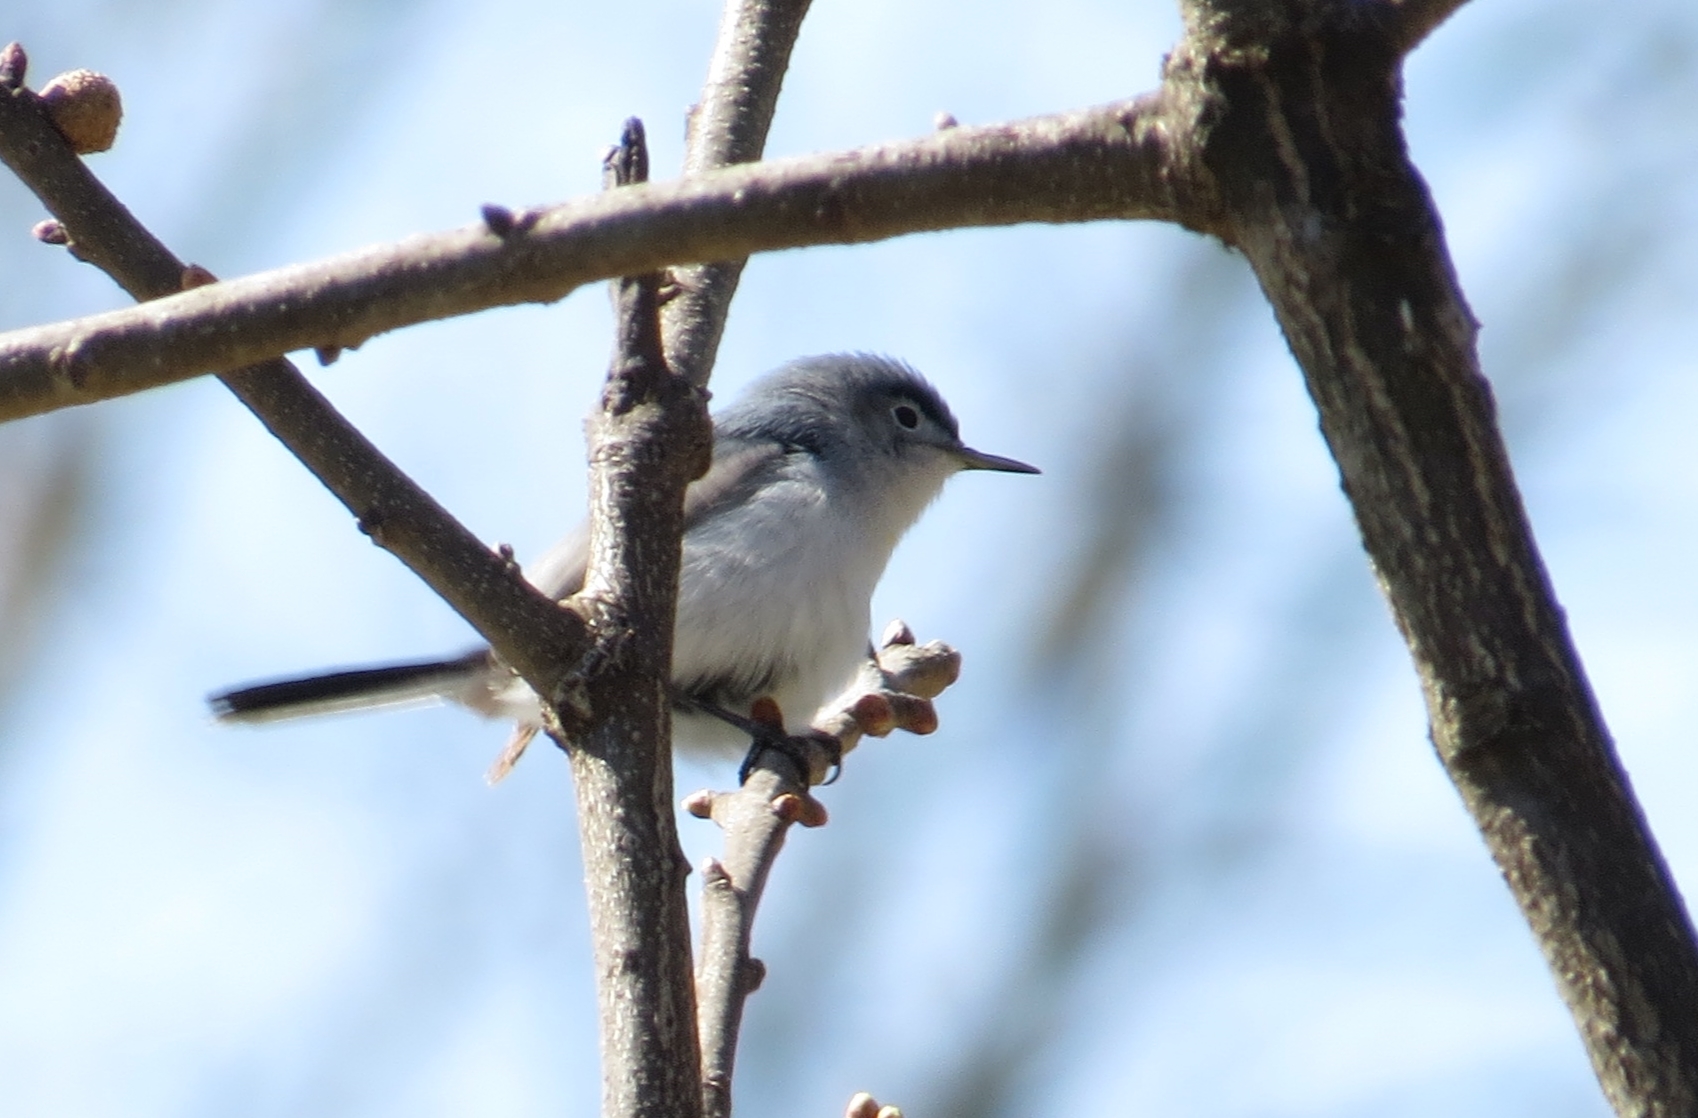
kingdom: Animalia
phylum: Chordata
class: Aves
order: Passeriformes
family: Polioptilidae
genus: Polioptila
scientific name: Polioptila caerulea
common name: Blue-gray gnatcatcher
